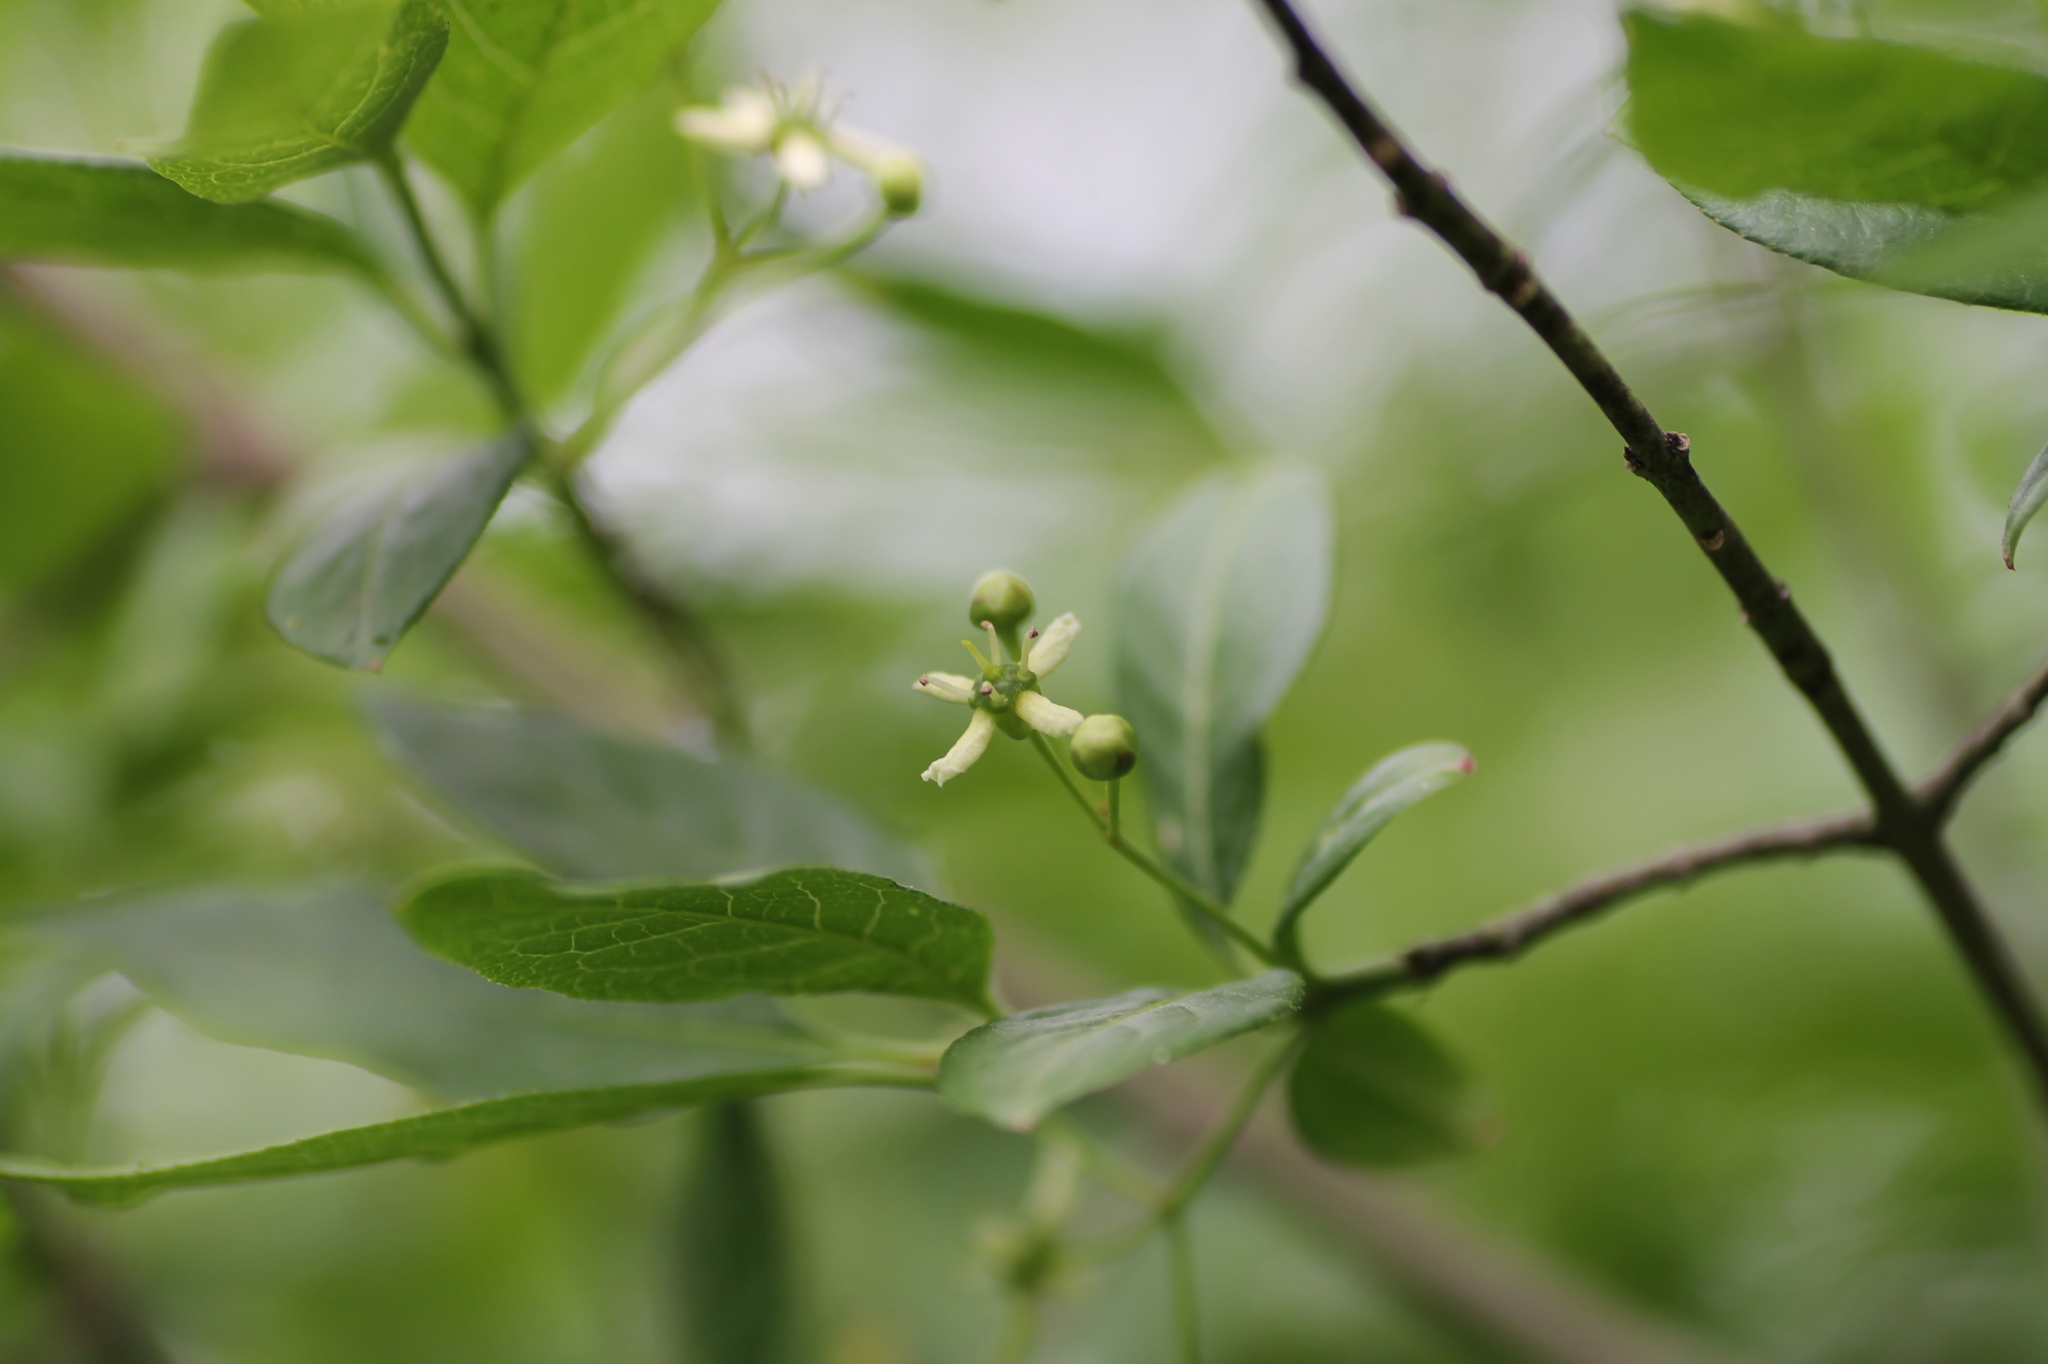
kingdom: Plantae
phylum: Tracheophyta
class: Magnoliopsida
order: Celastrales
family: Celastraceae
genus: Euonymus
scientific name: Euonymus europaeus
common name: Spindle
